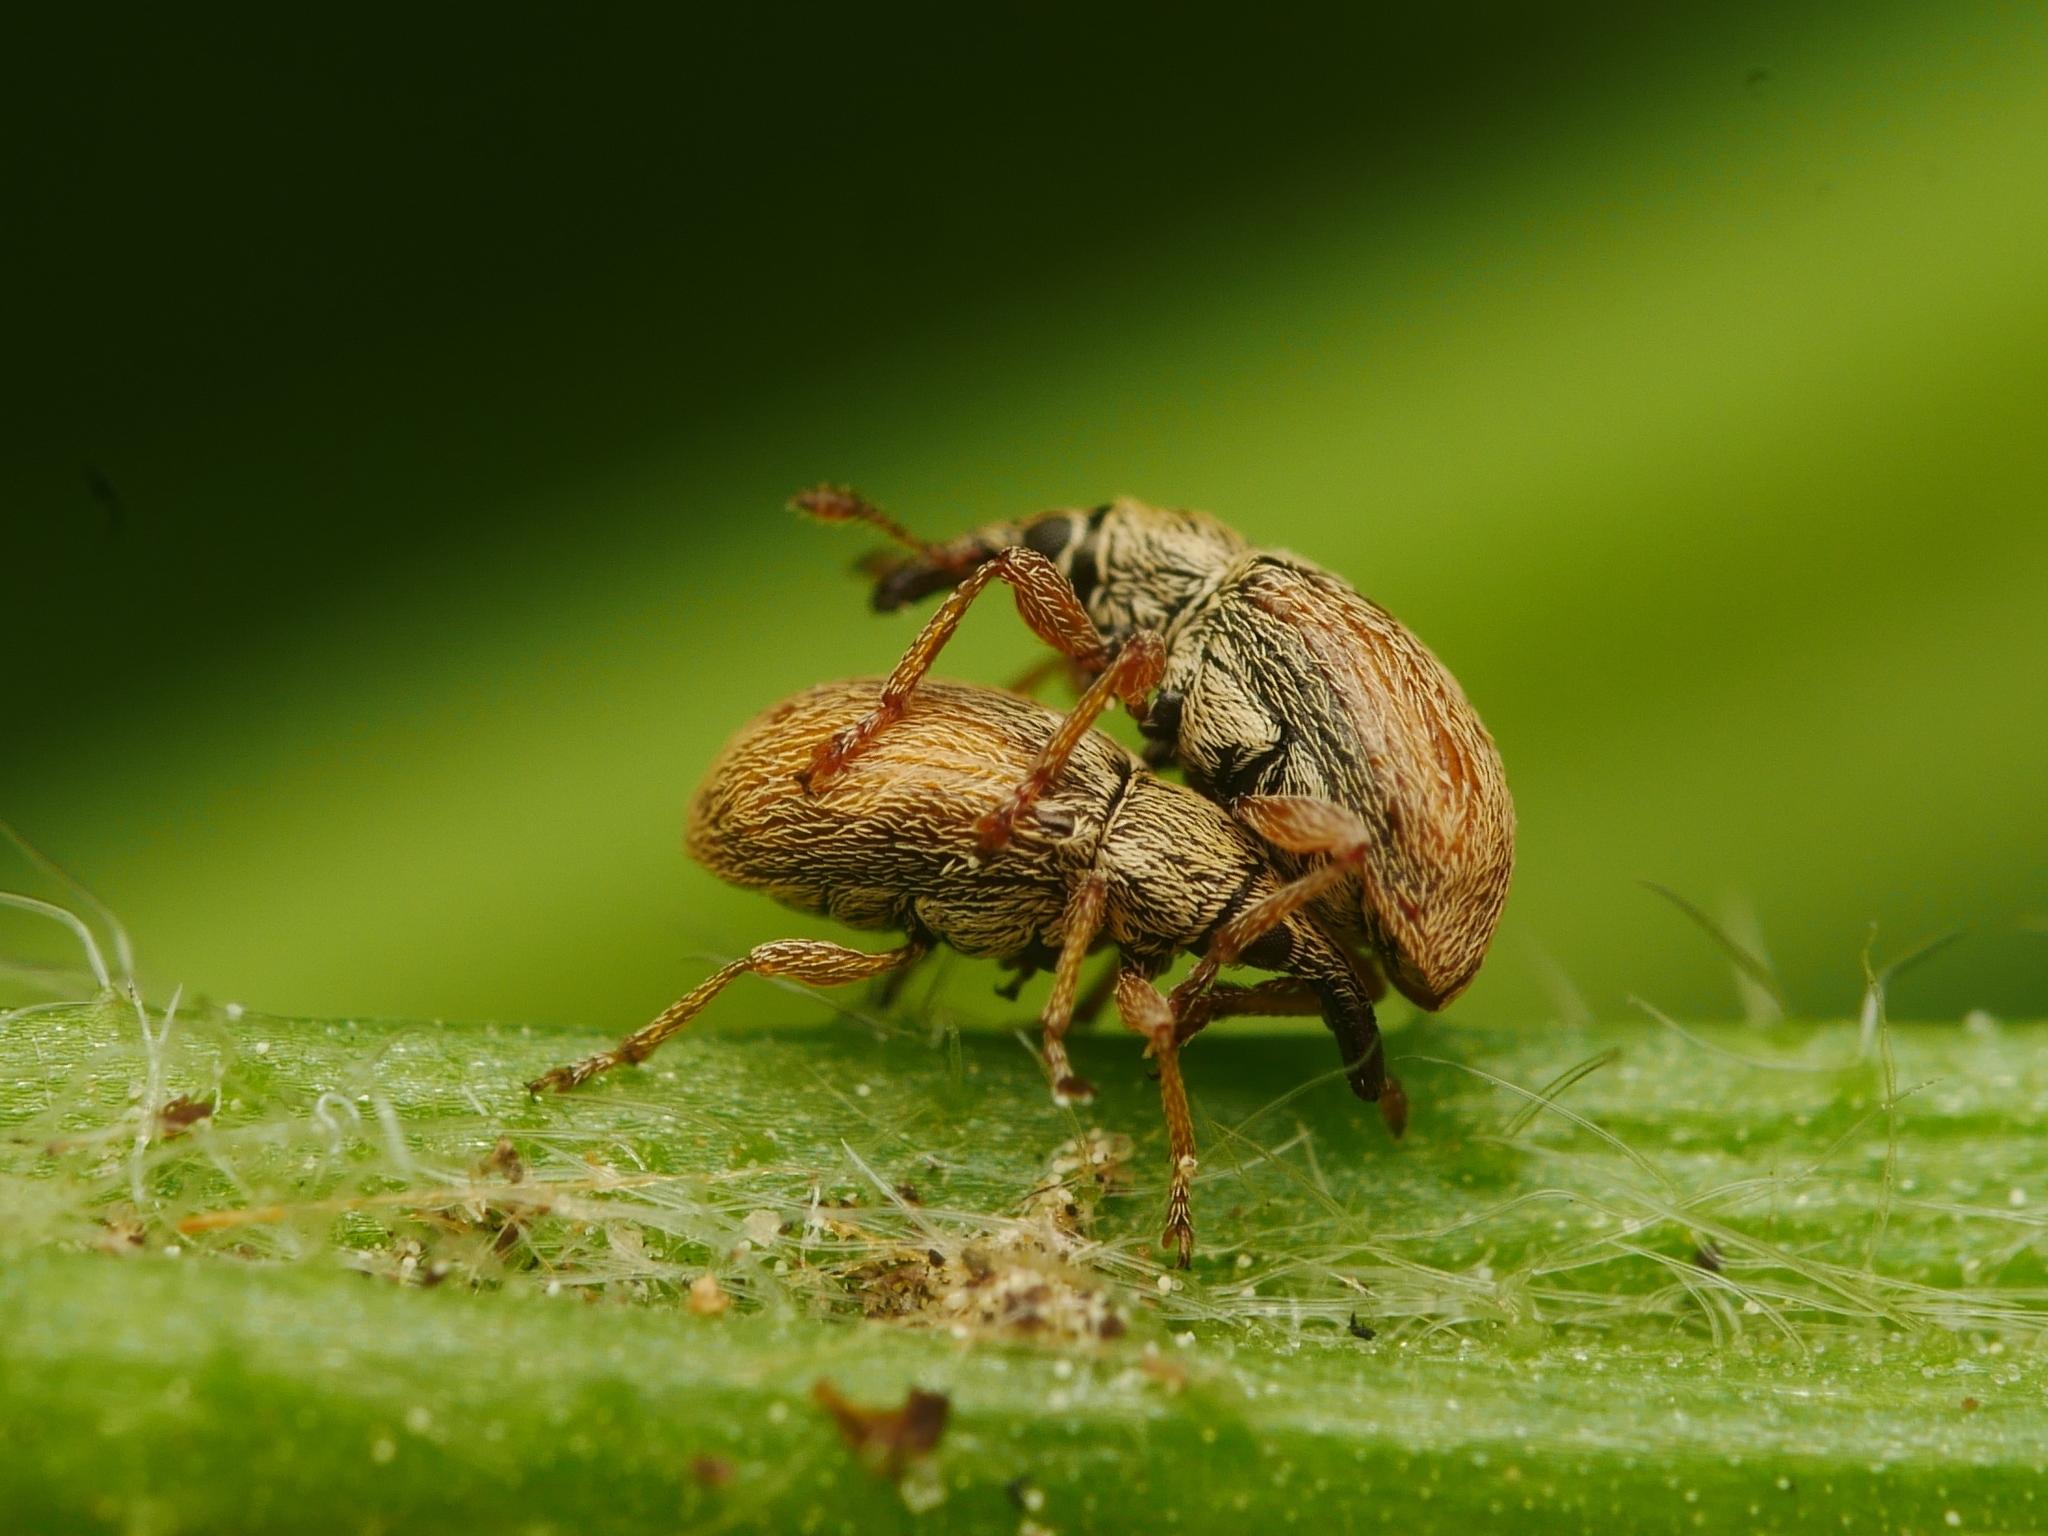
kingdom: Animalia
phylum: Arthropoda
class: Insecta
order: Coleoptera
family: Apionidae
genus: Malvapion
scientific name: Malvapion malvae
